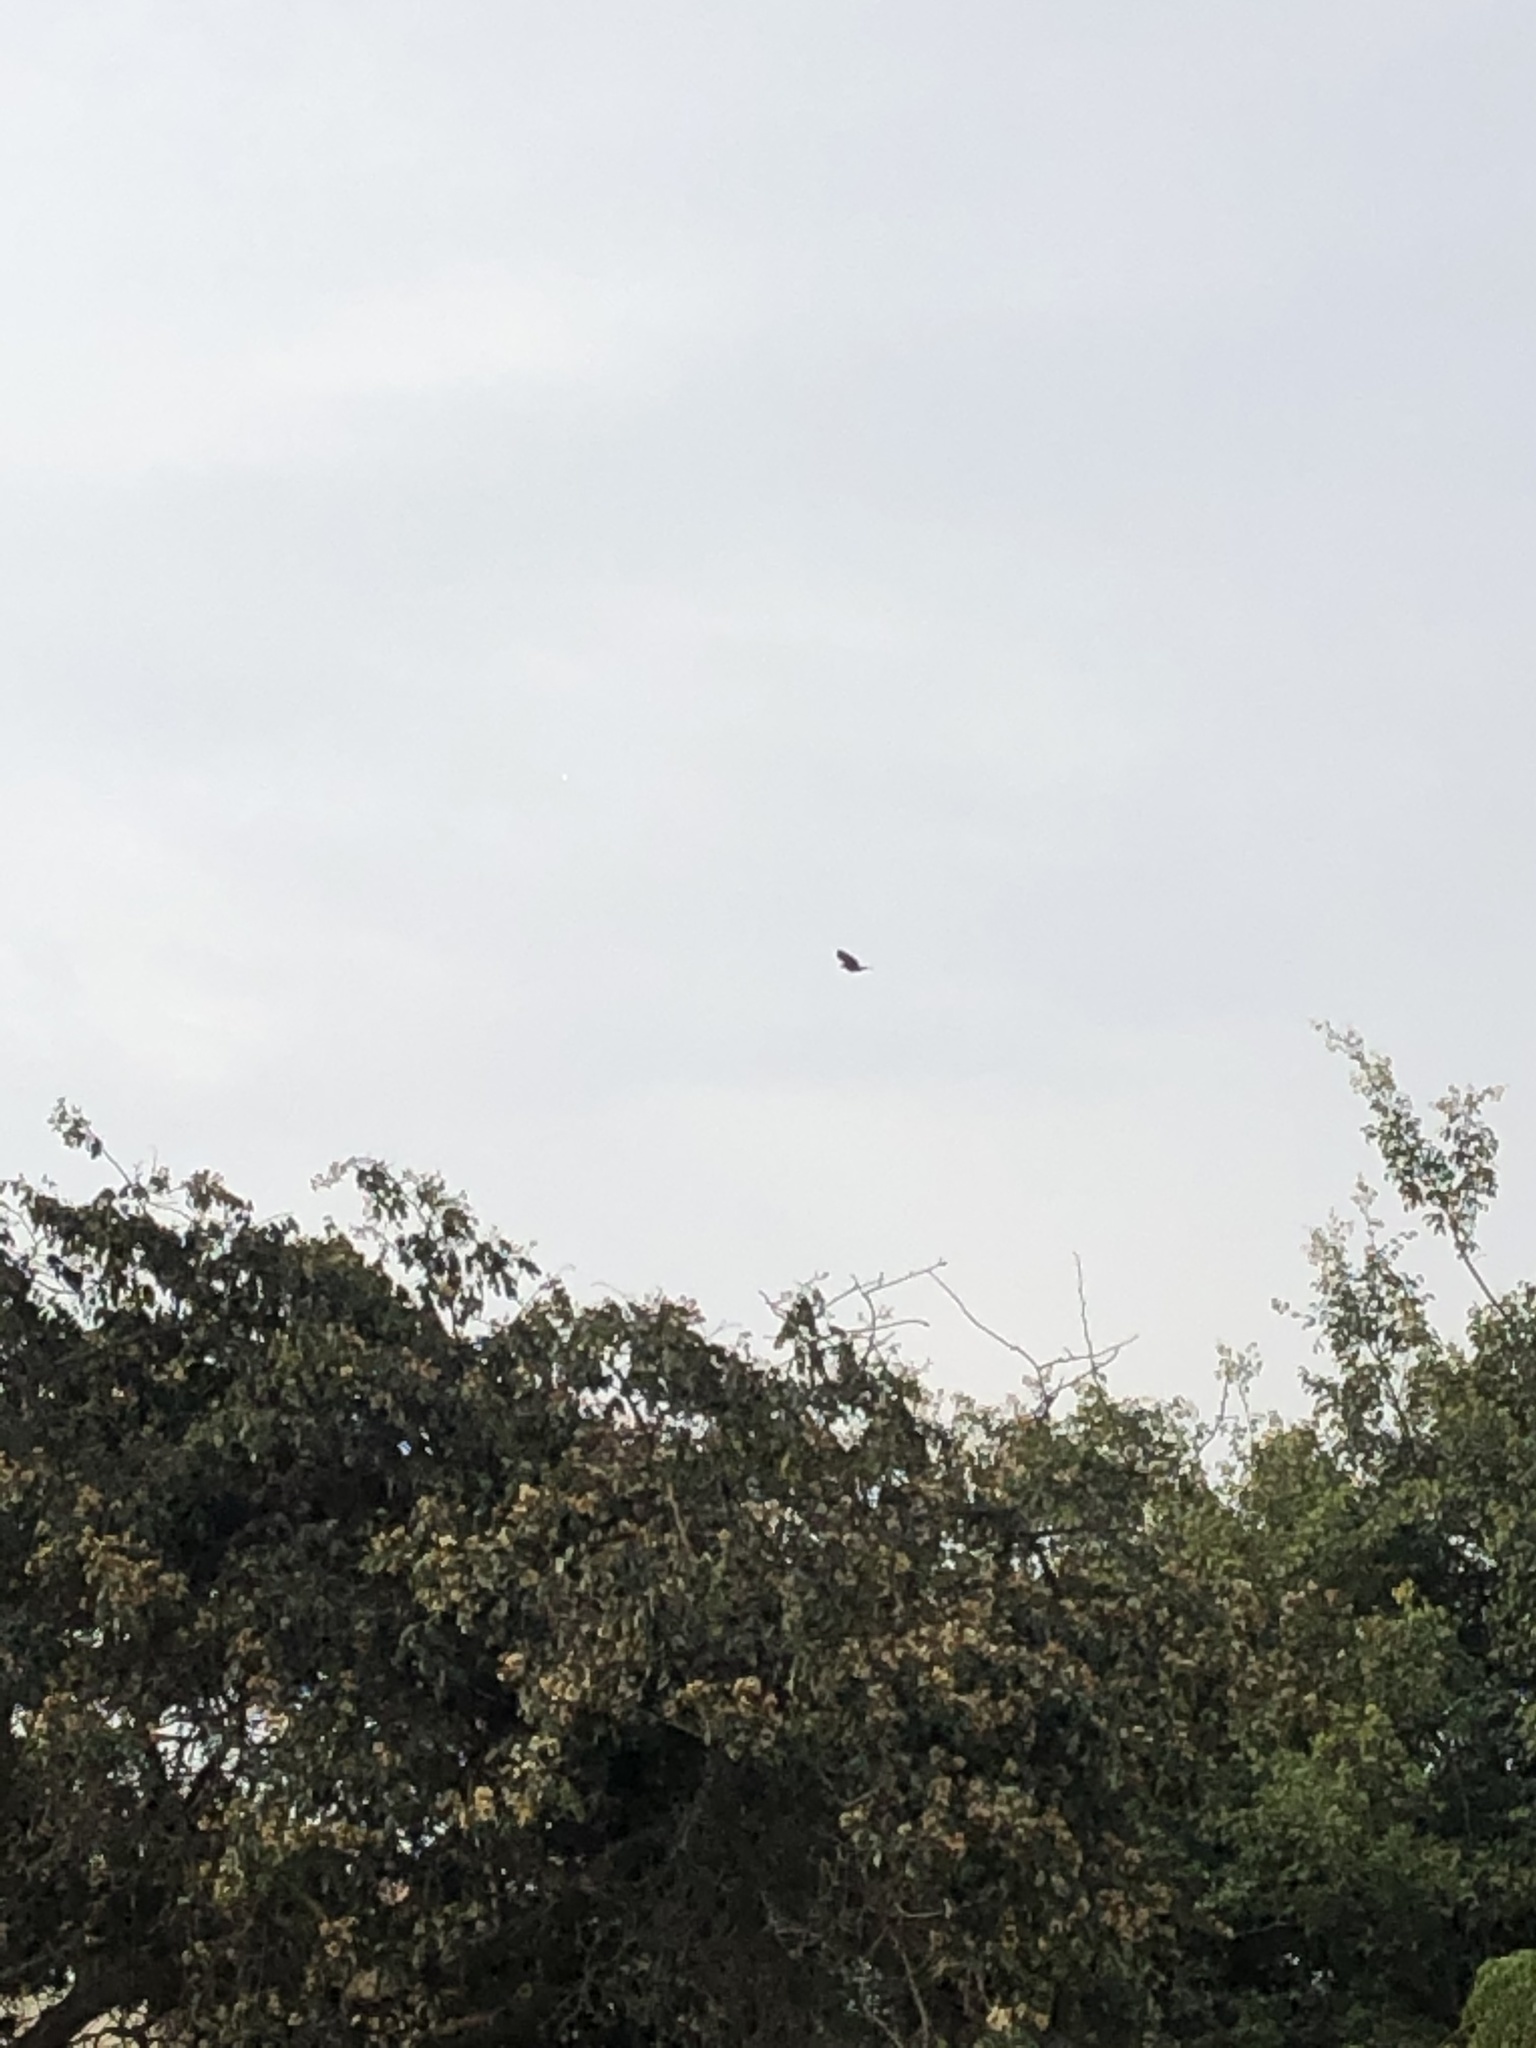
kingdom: Animalia
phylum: Chordata
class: Aves
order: Accipitriformes
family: Accipitridae
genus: Parabuteo
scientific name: Parabuteo unicinctus
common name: Harris's hawk
